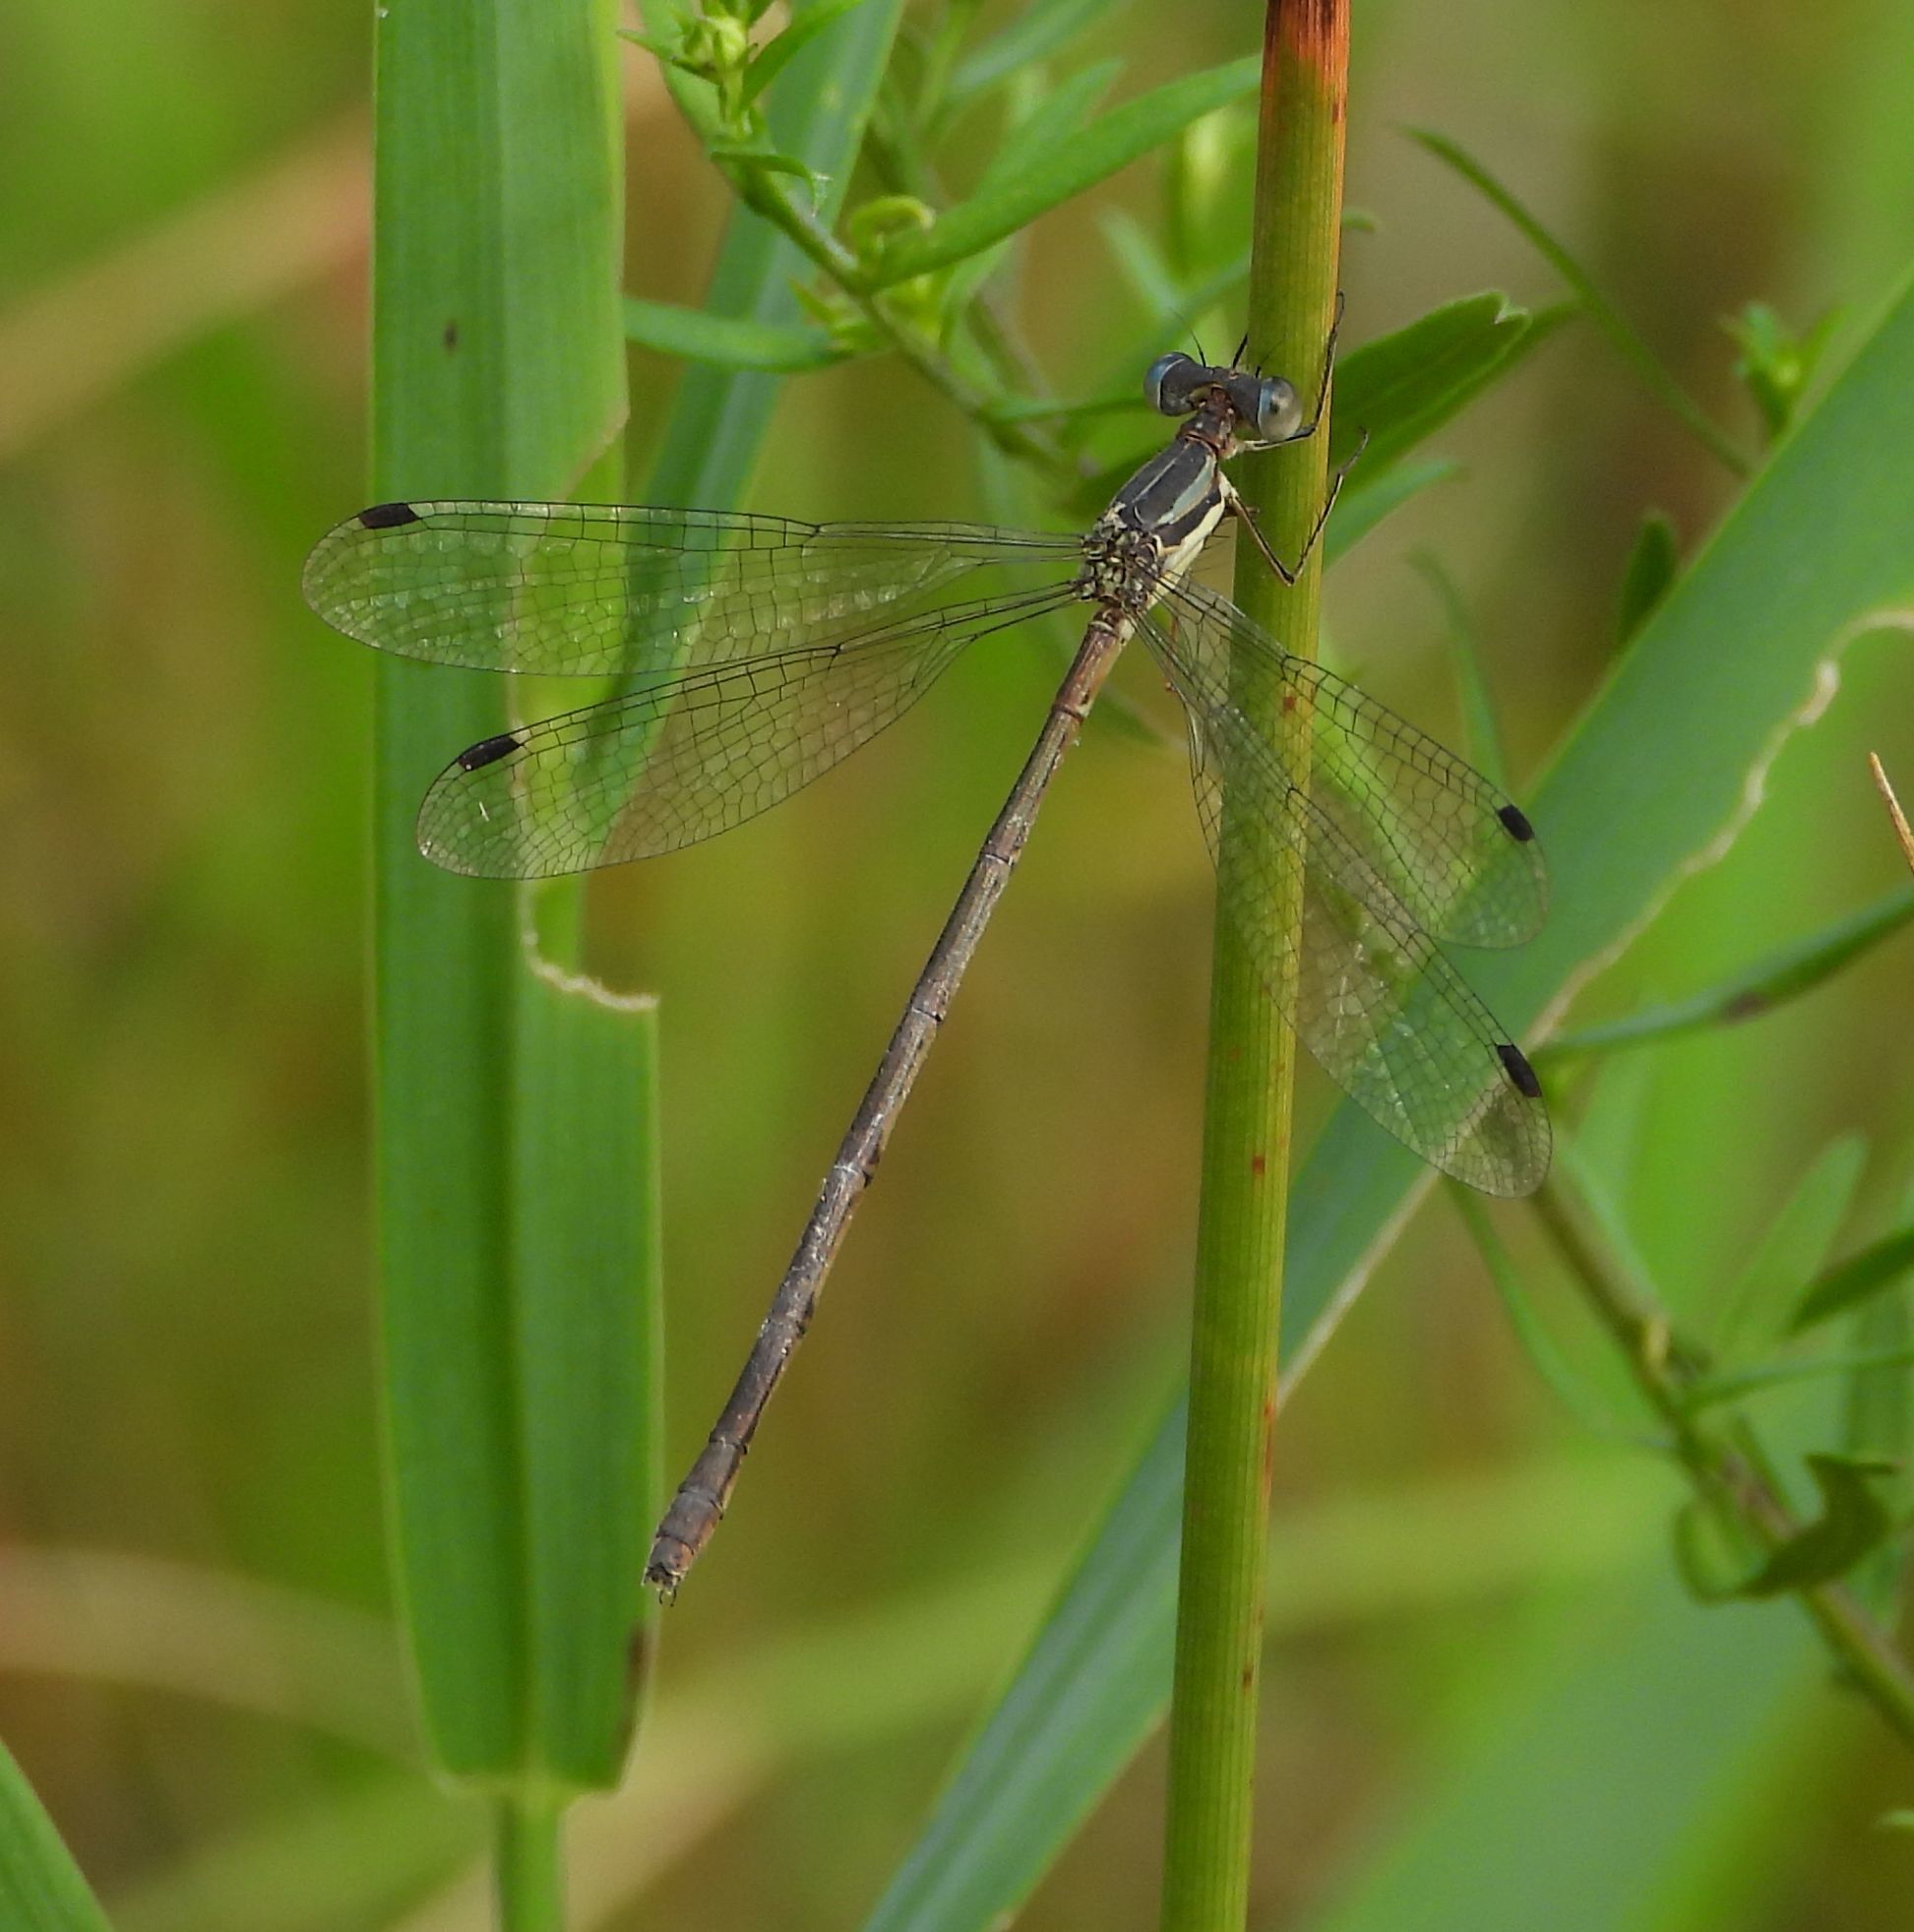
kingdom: Animalia
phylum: Arthropoda
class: Insecta
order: Odonata
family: Lestidae
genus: Lestes
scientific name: Lestes rectangularis
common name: Slender spreadwing
